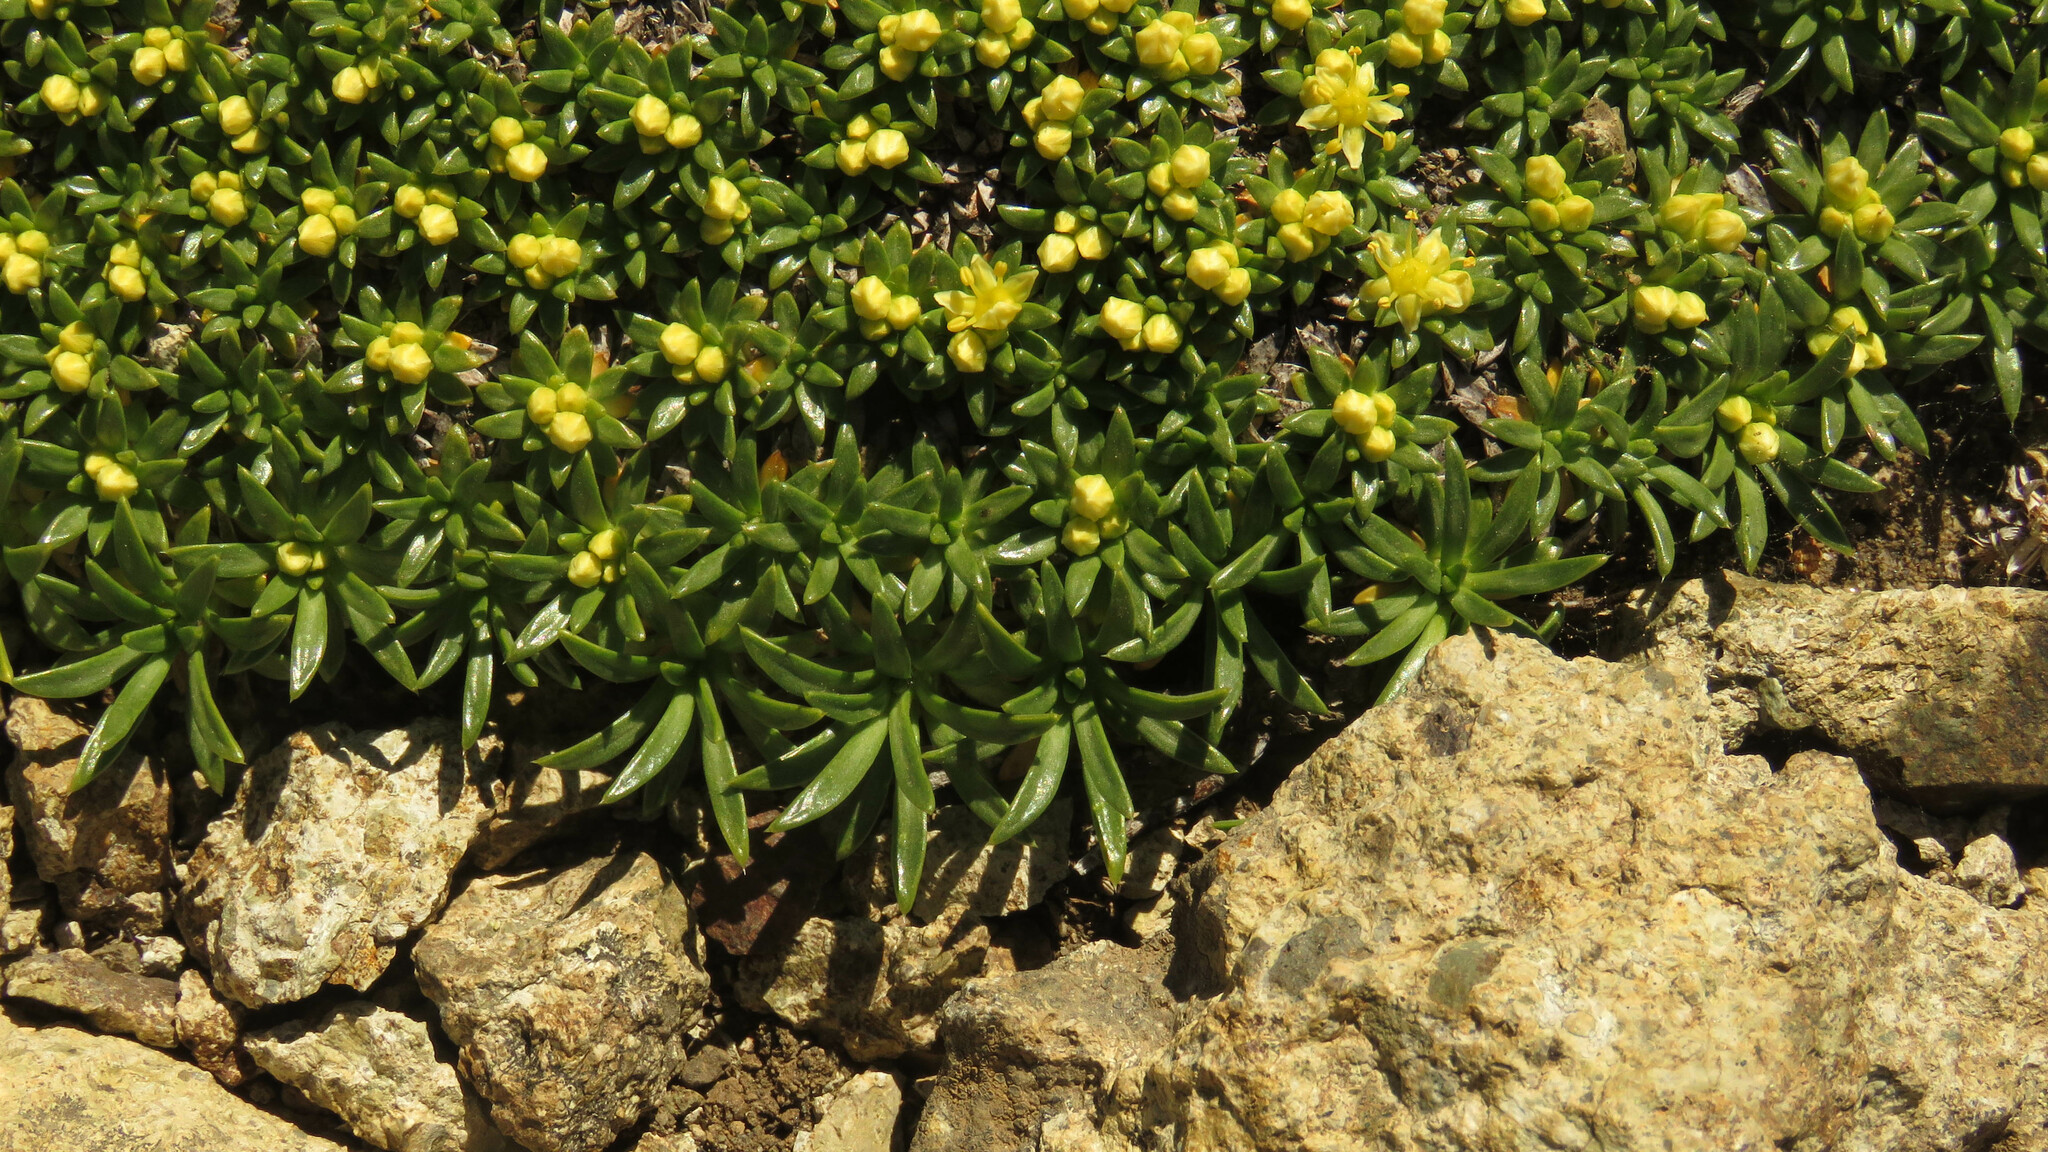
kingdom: Plantae
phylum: Tracheophyta
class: Magnoliopsida
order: Apiales
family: Apiaceae
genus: Azorella
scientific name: Azorella monantha
